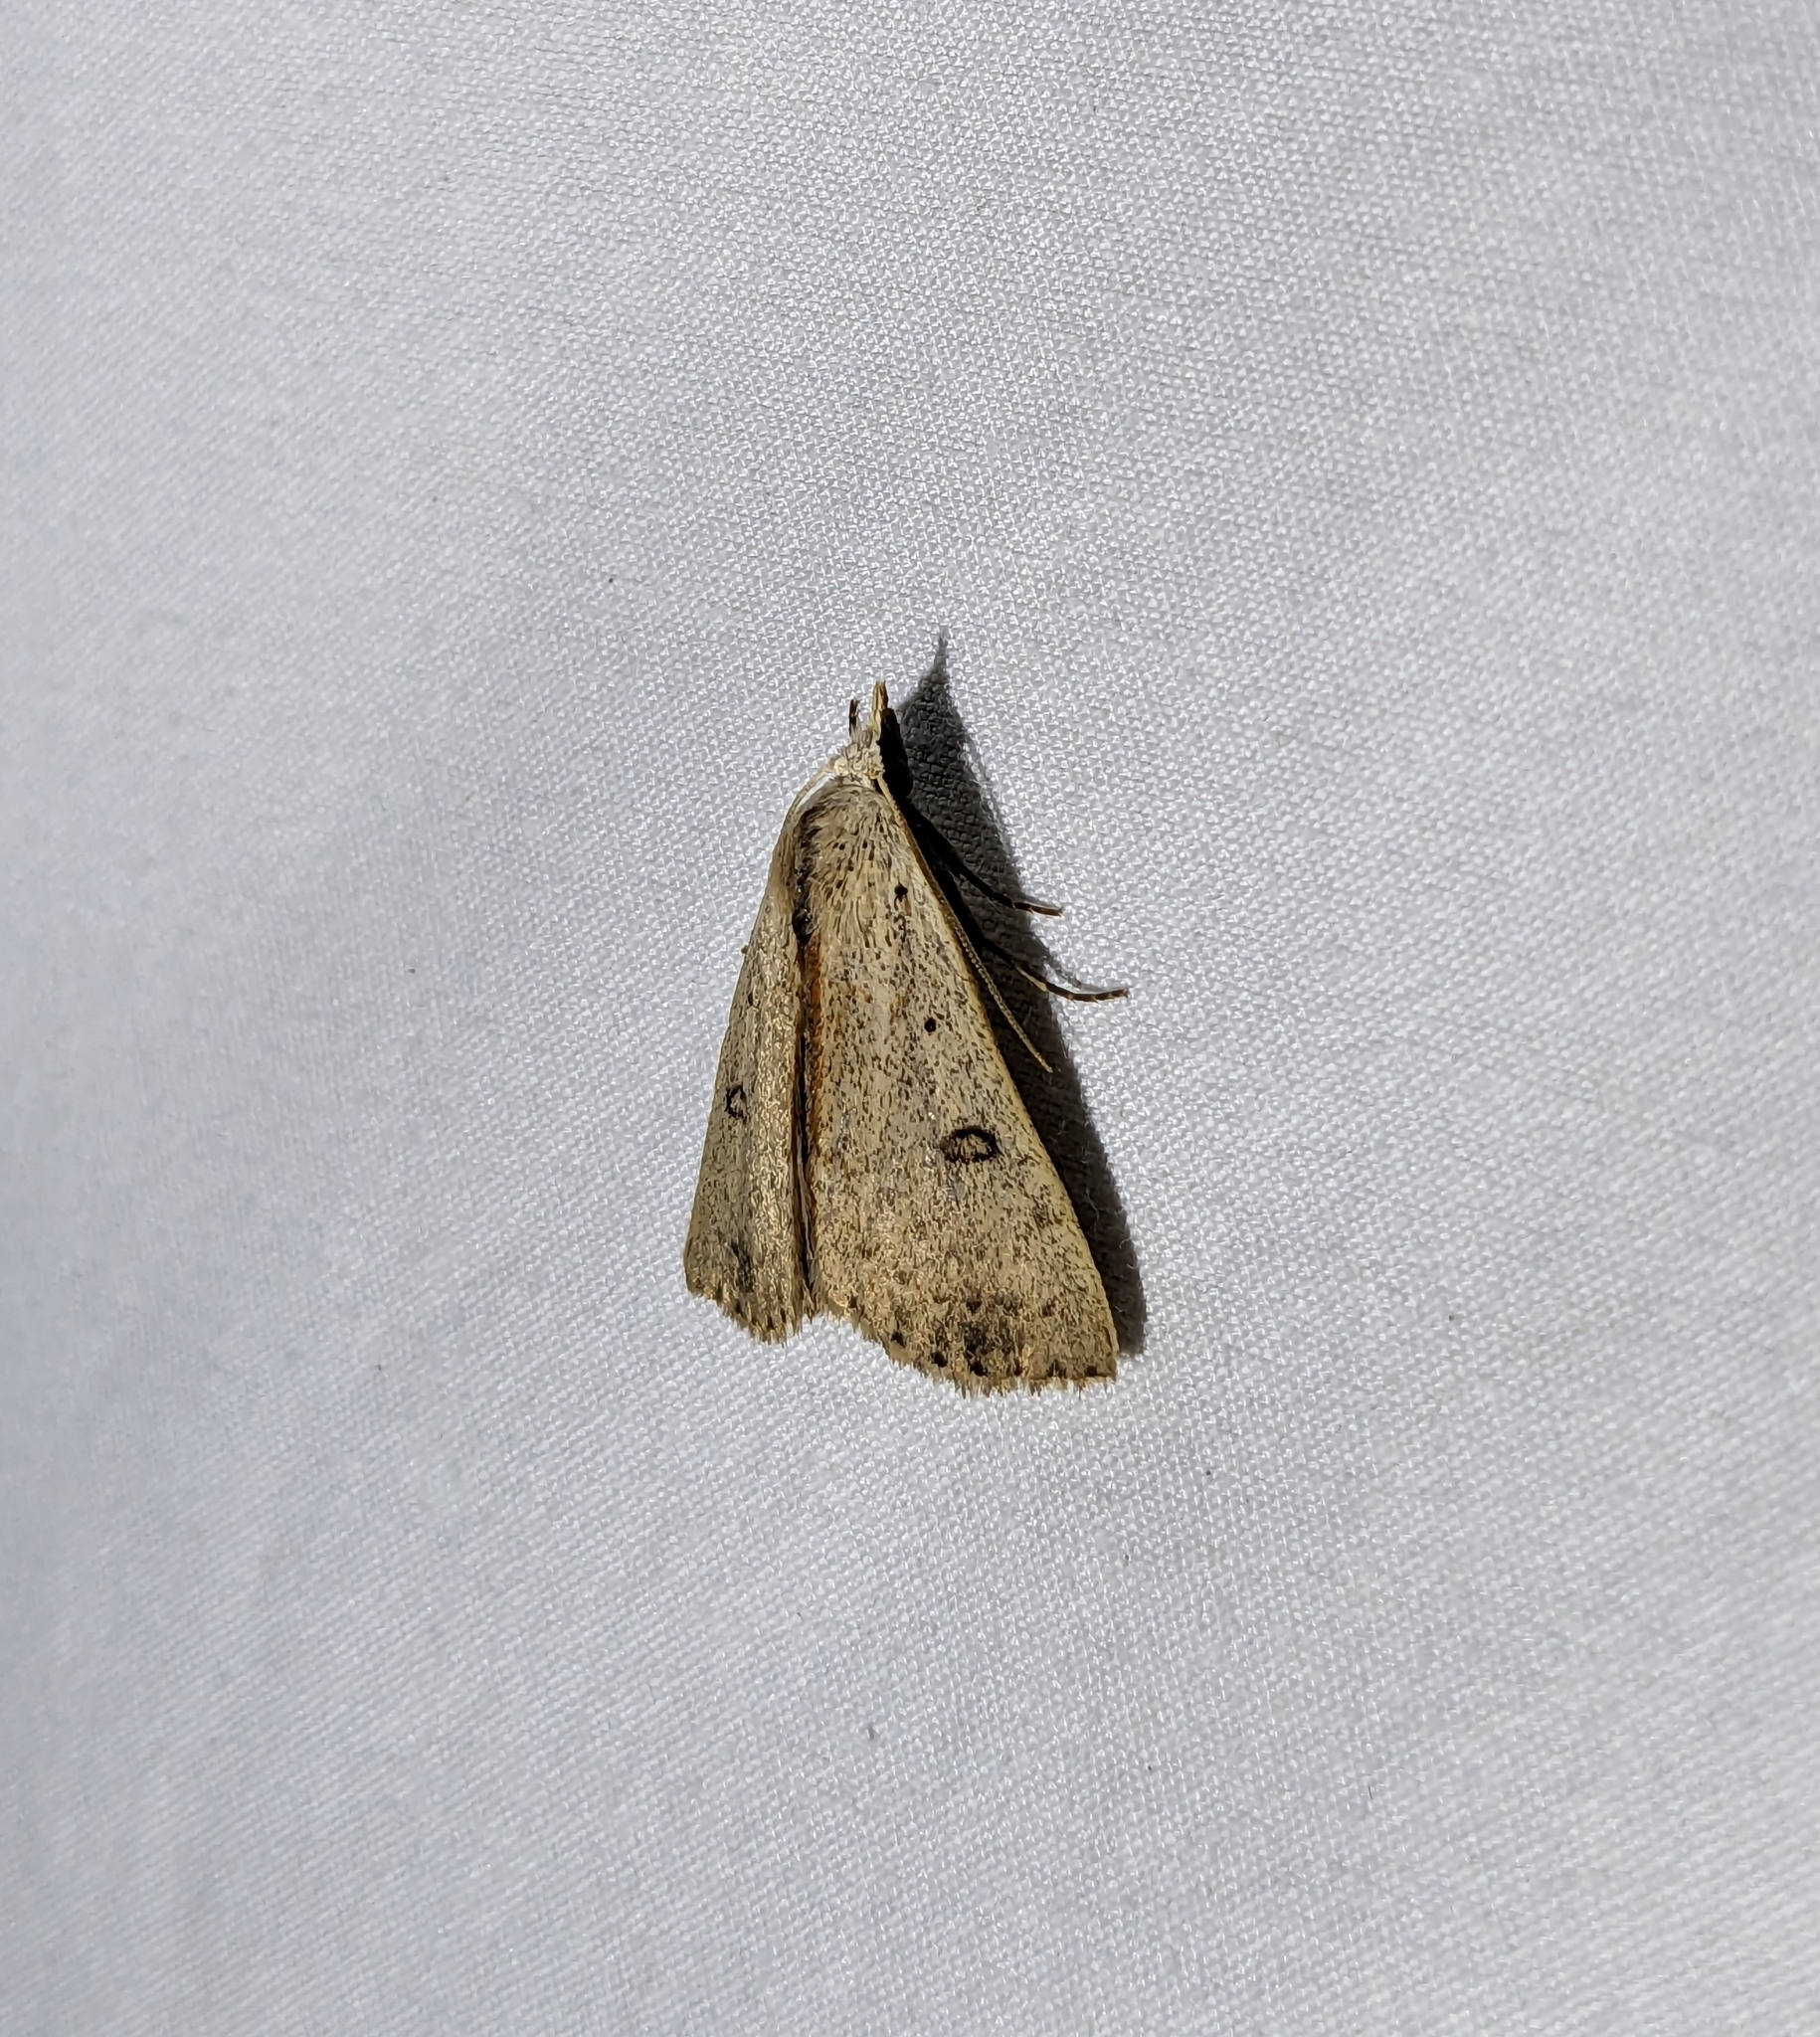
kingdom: Animalia
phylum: Arthropoda
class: Insecta
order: Lepidoptera
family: Erebidae
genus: Scolecocampa
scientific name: Scolecocampa liburna
